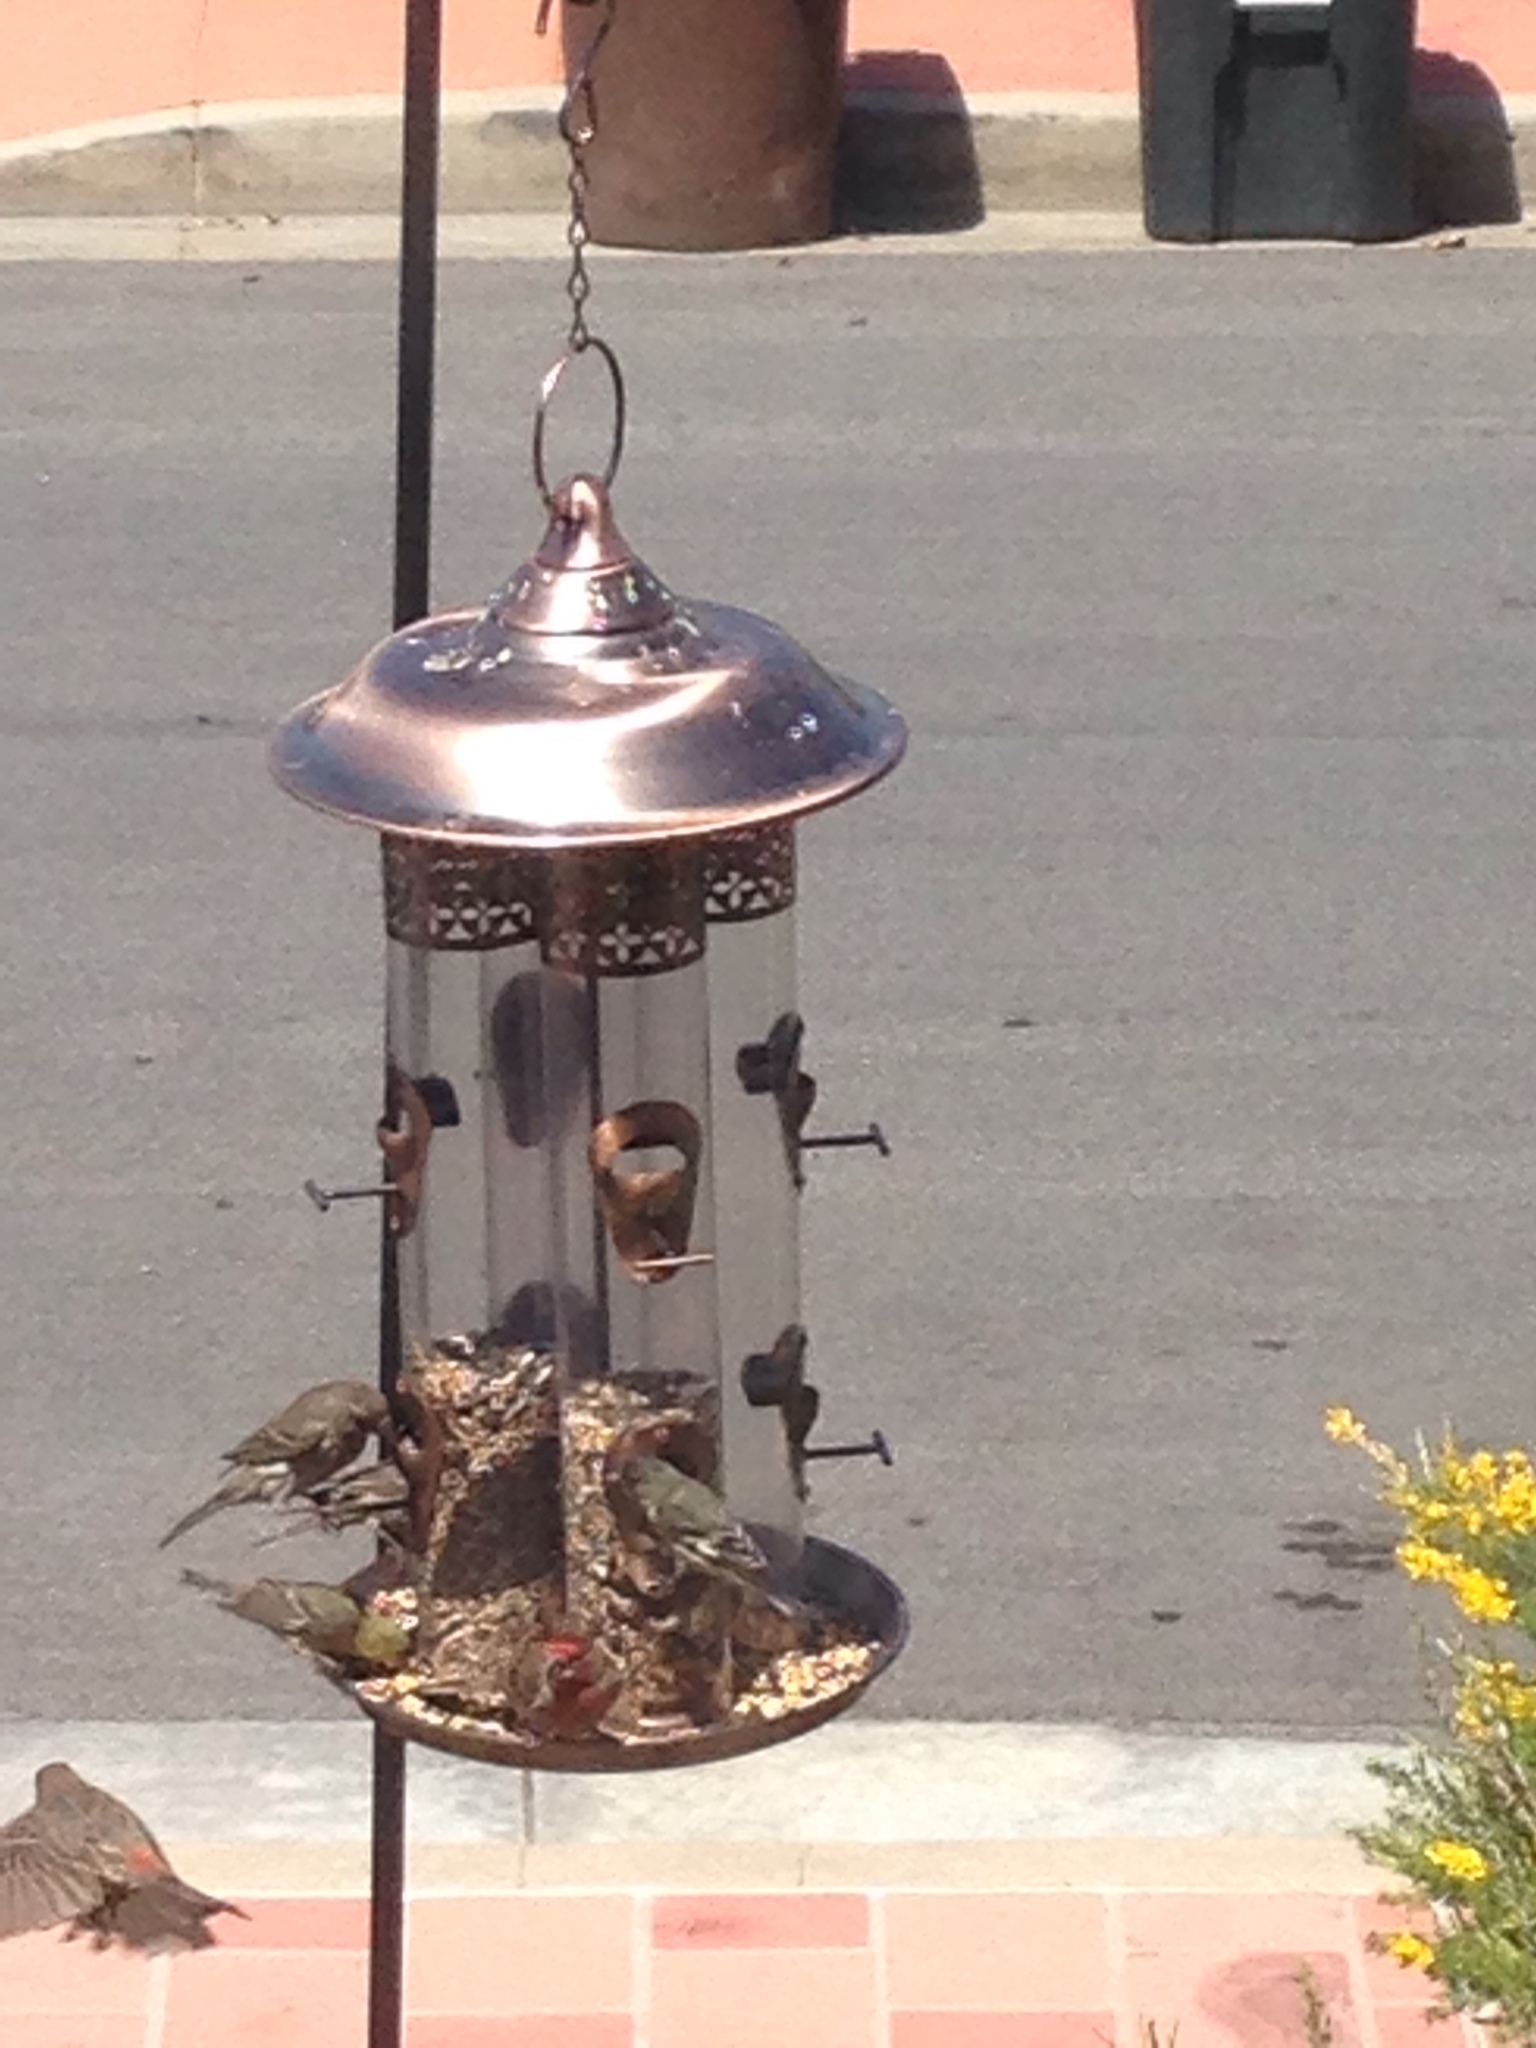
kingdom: Animalia
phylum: Chordata
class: Aves
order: Passeriformes
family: Fringillidae
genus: Haemorhous
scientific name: Haemorhous mexicanus
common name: House finch
